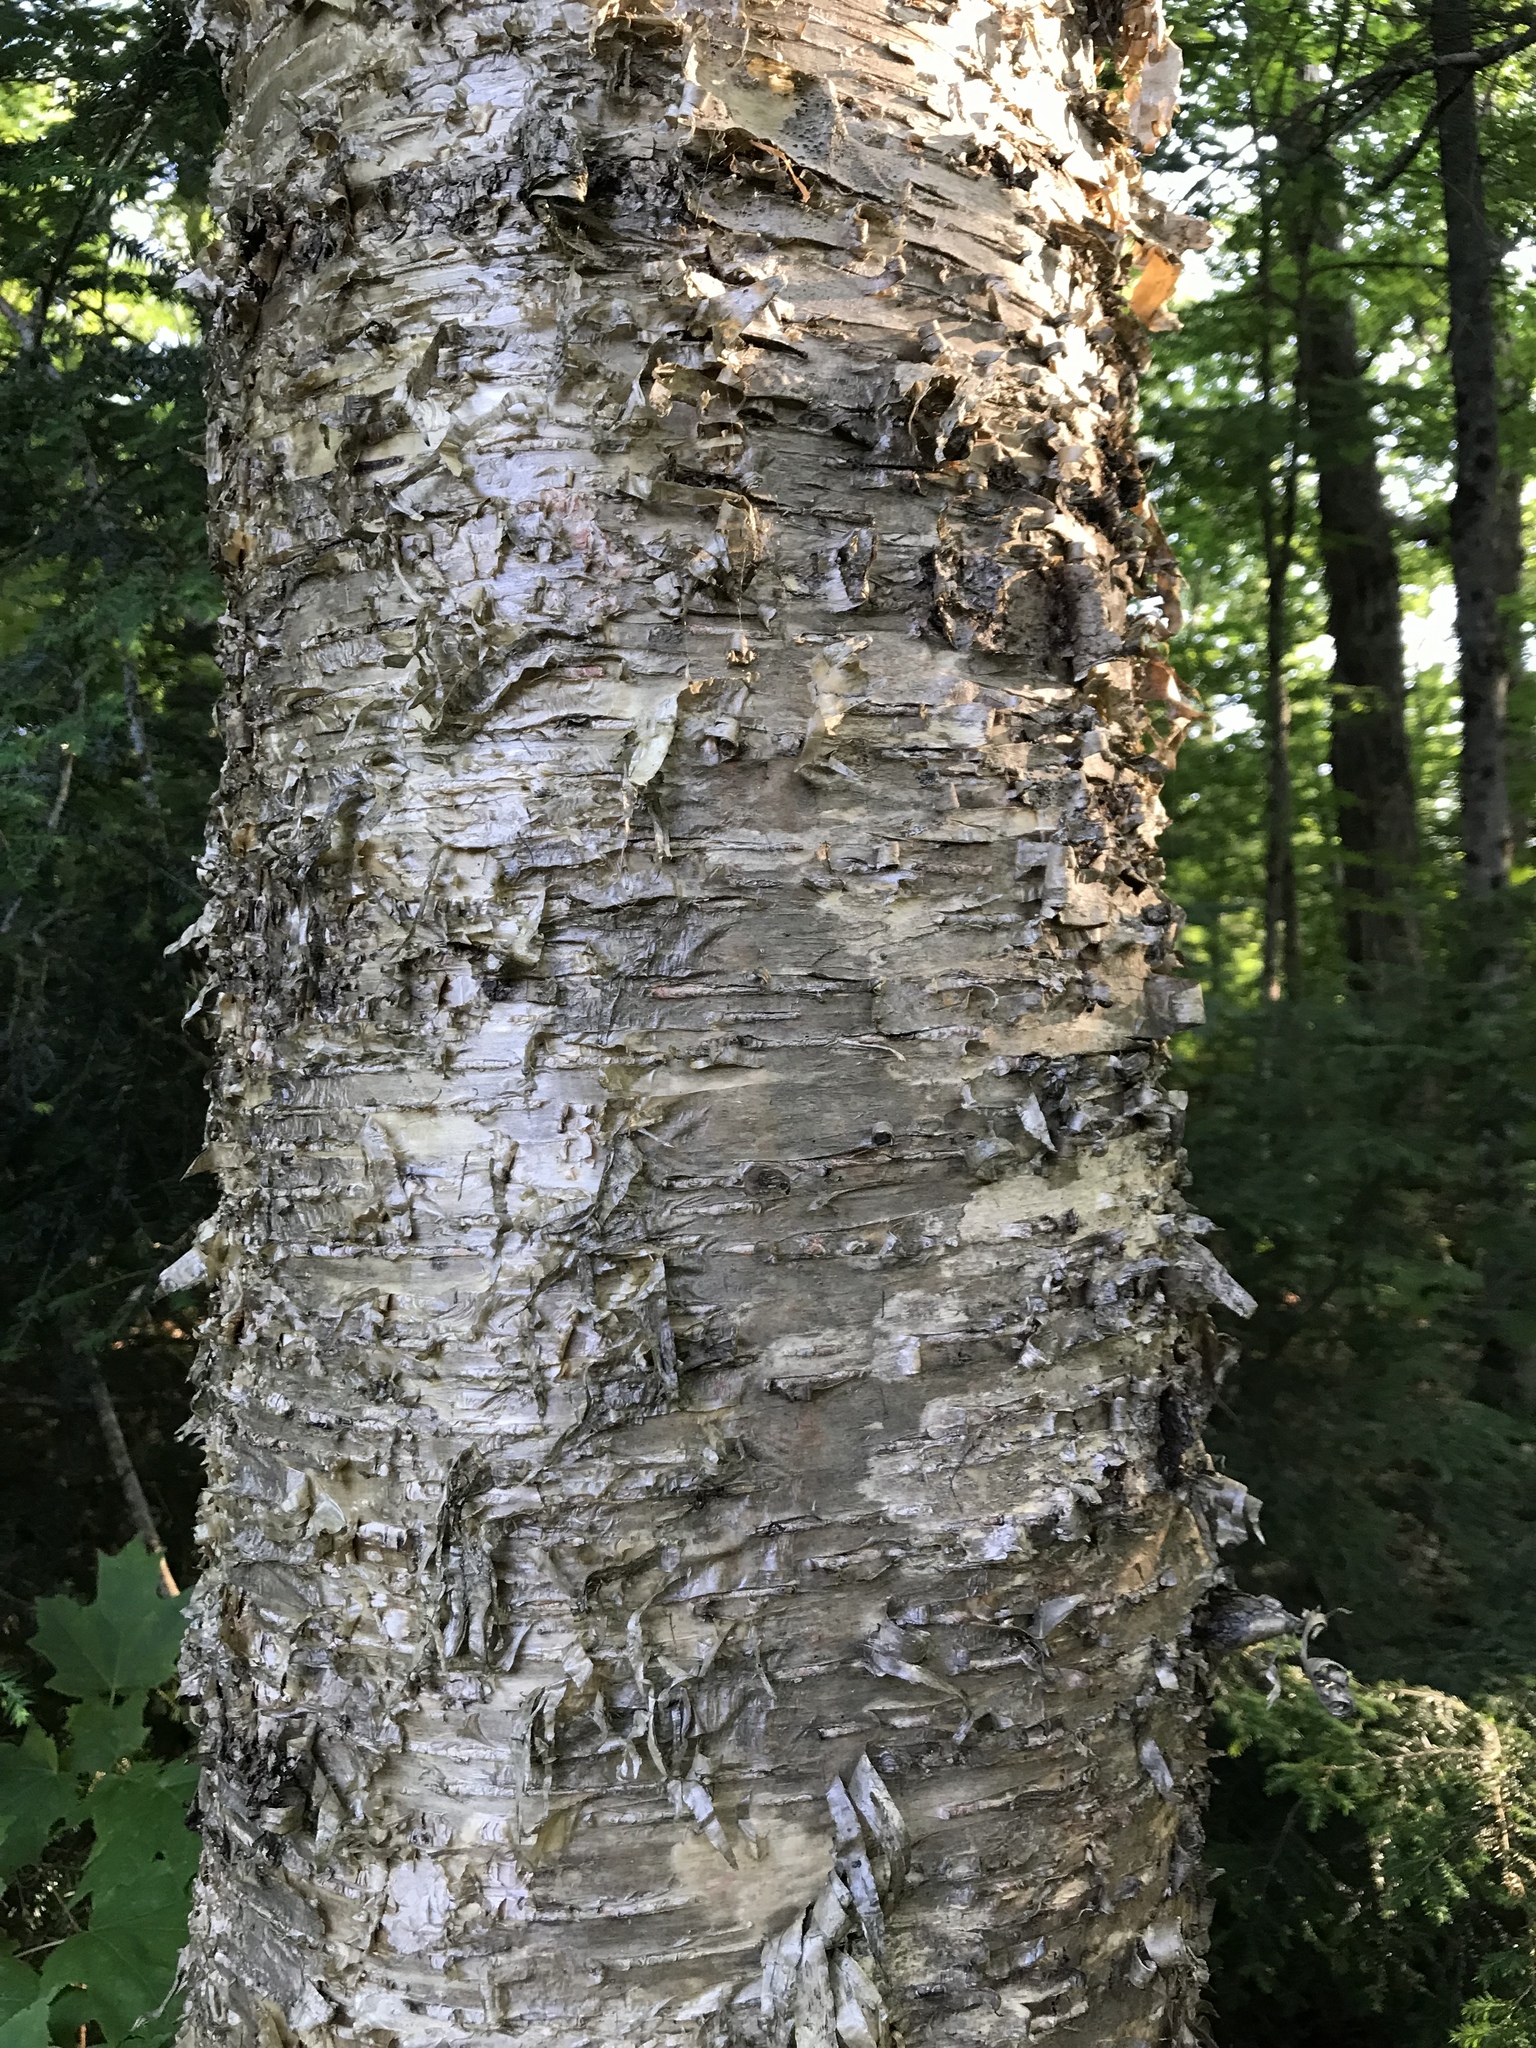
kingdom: Plantae
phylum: Tracheophyta
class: Magnoliopsida
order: Fagales
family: Betulaceae
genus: Betula
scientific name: Betula alleghaniensis
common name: Yellow birch
